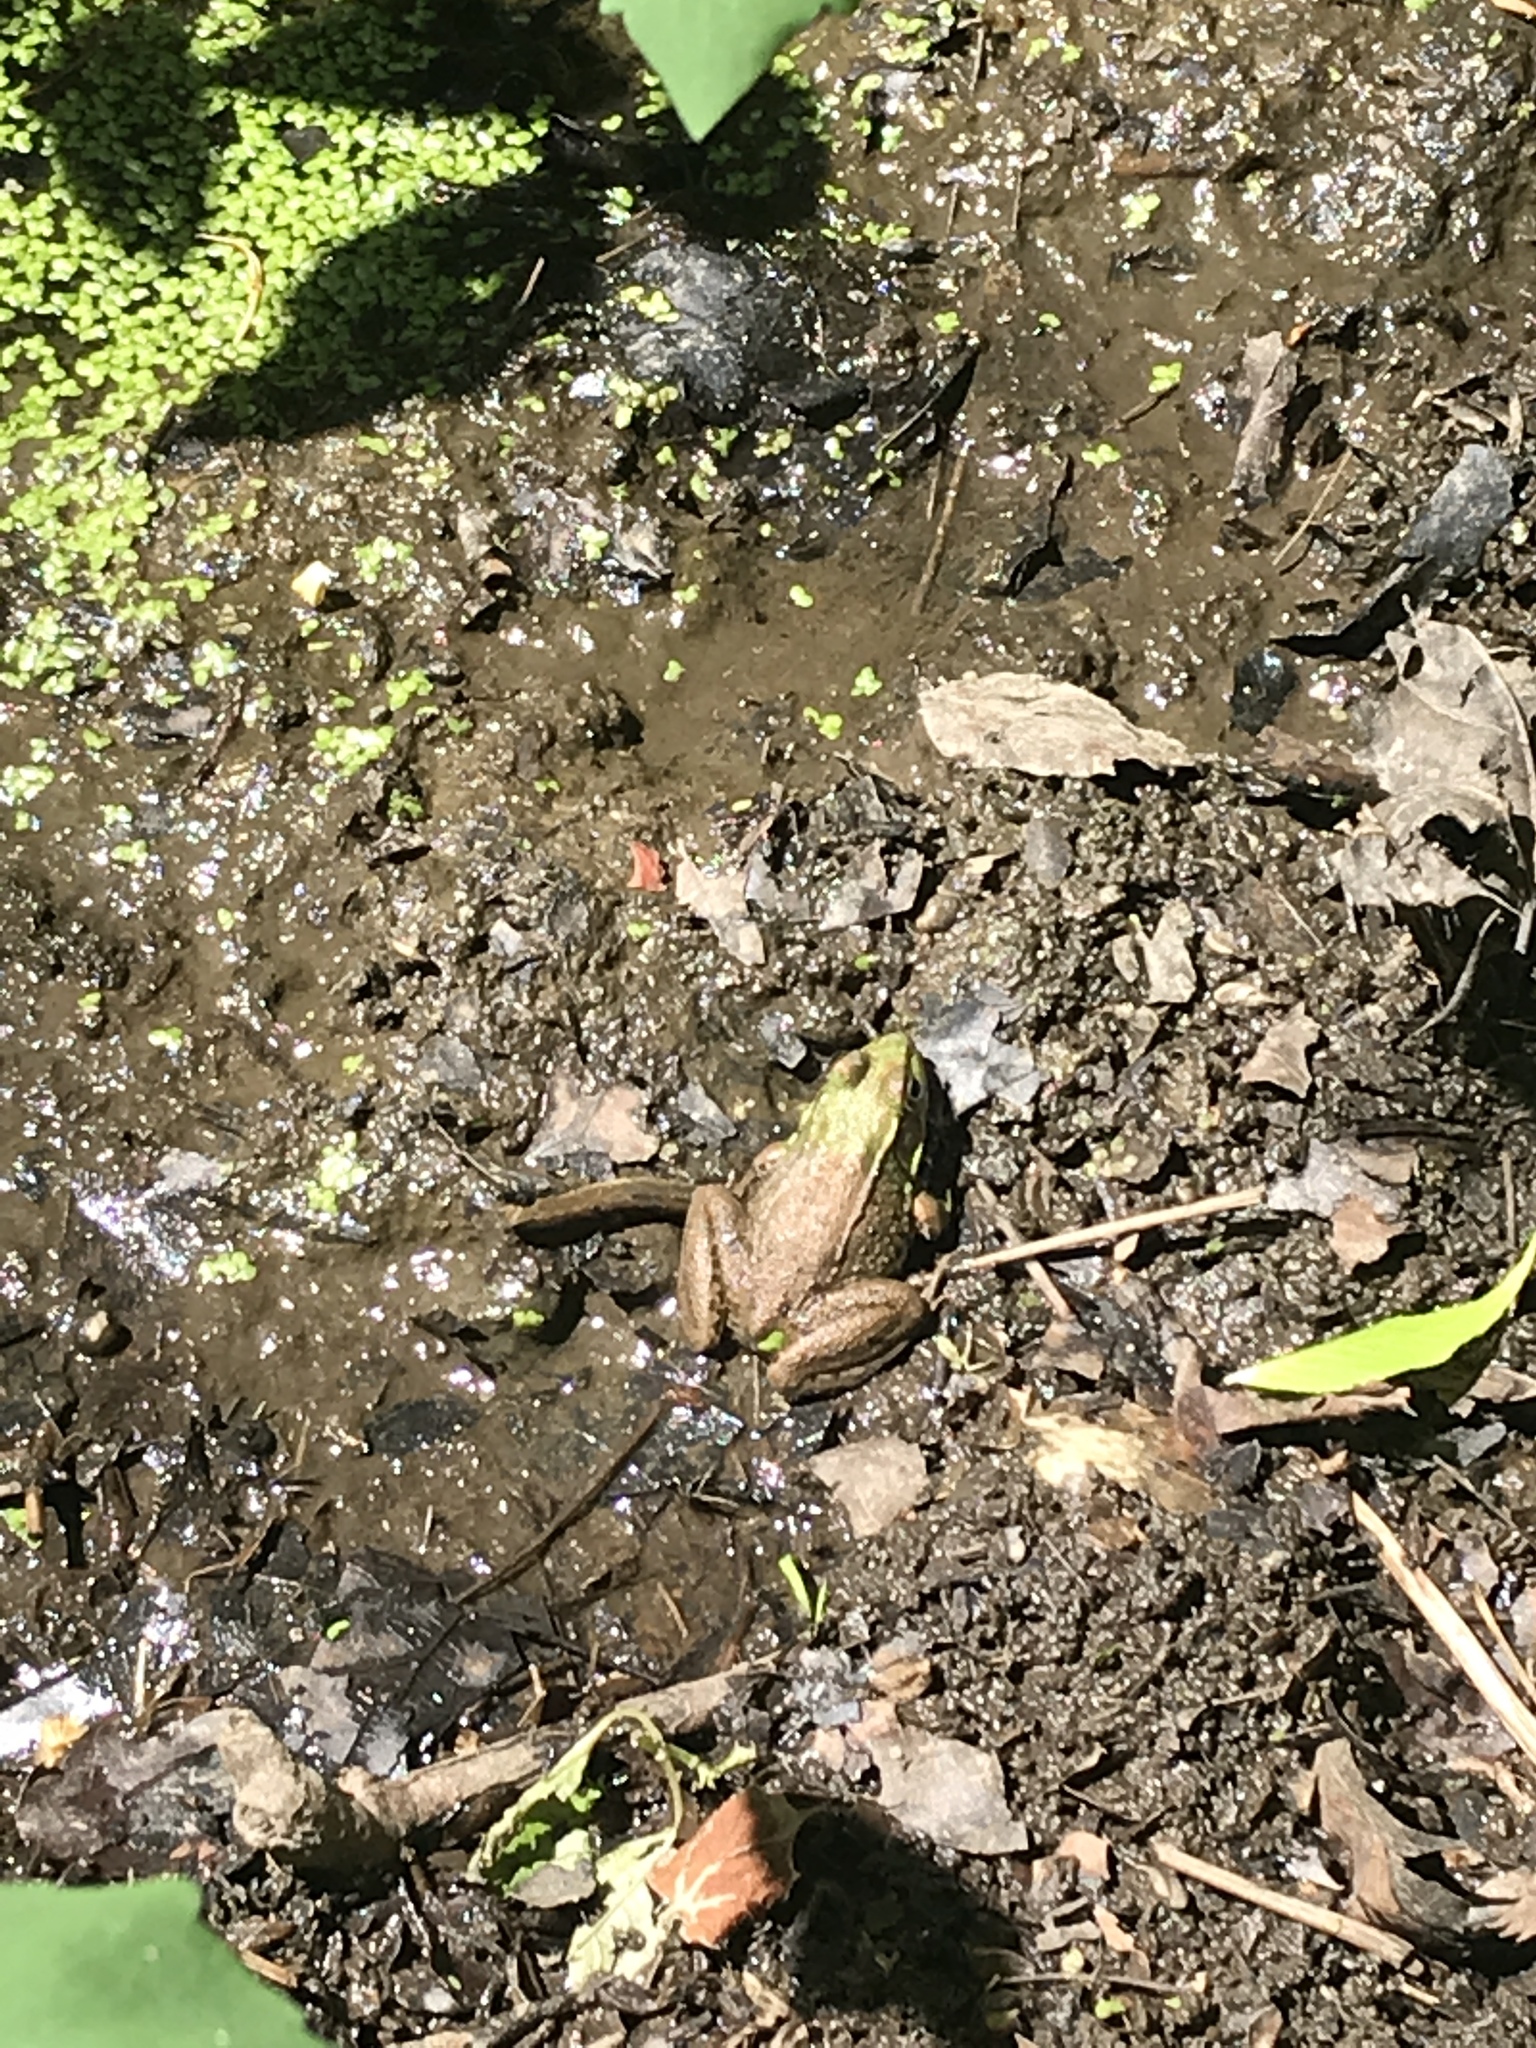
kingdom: Animalia
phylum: Chordata
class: Amphibia
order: Anura
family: Ranidae
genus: Lithobates
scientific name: Lithobates clamitans
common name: Green frog
